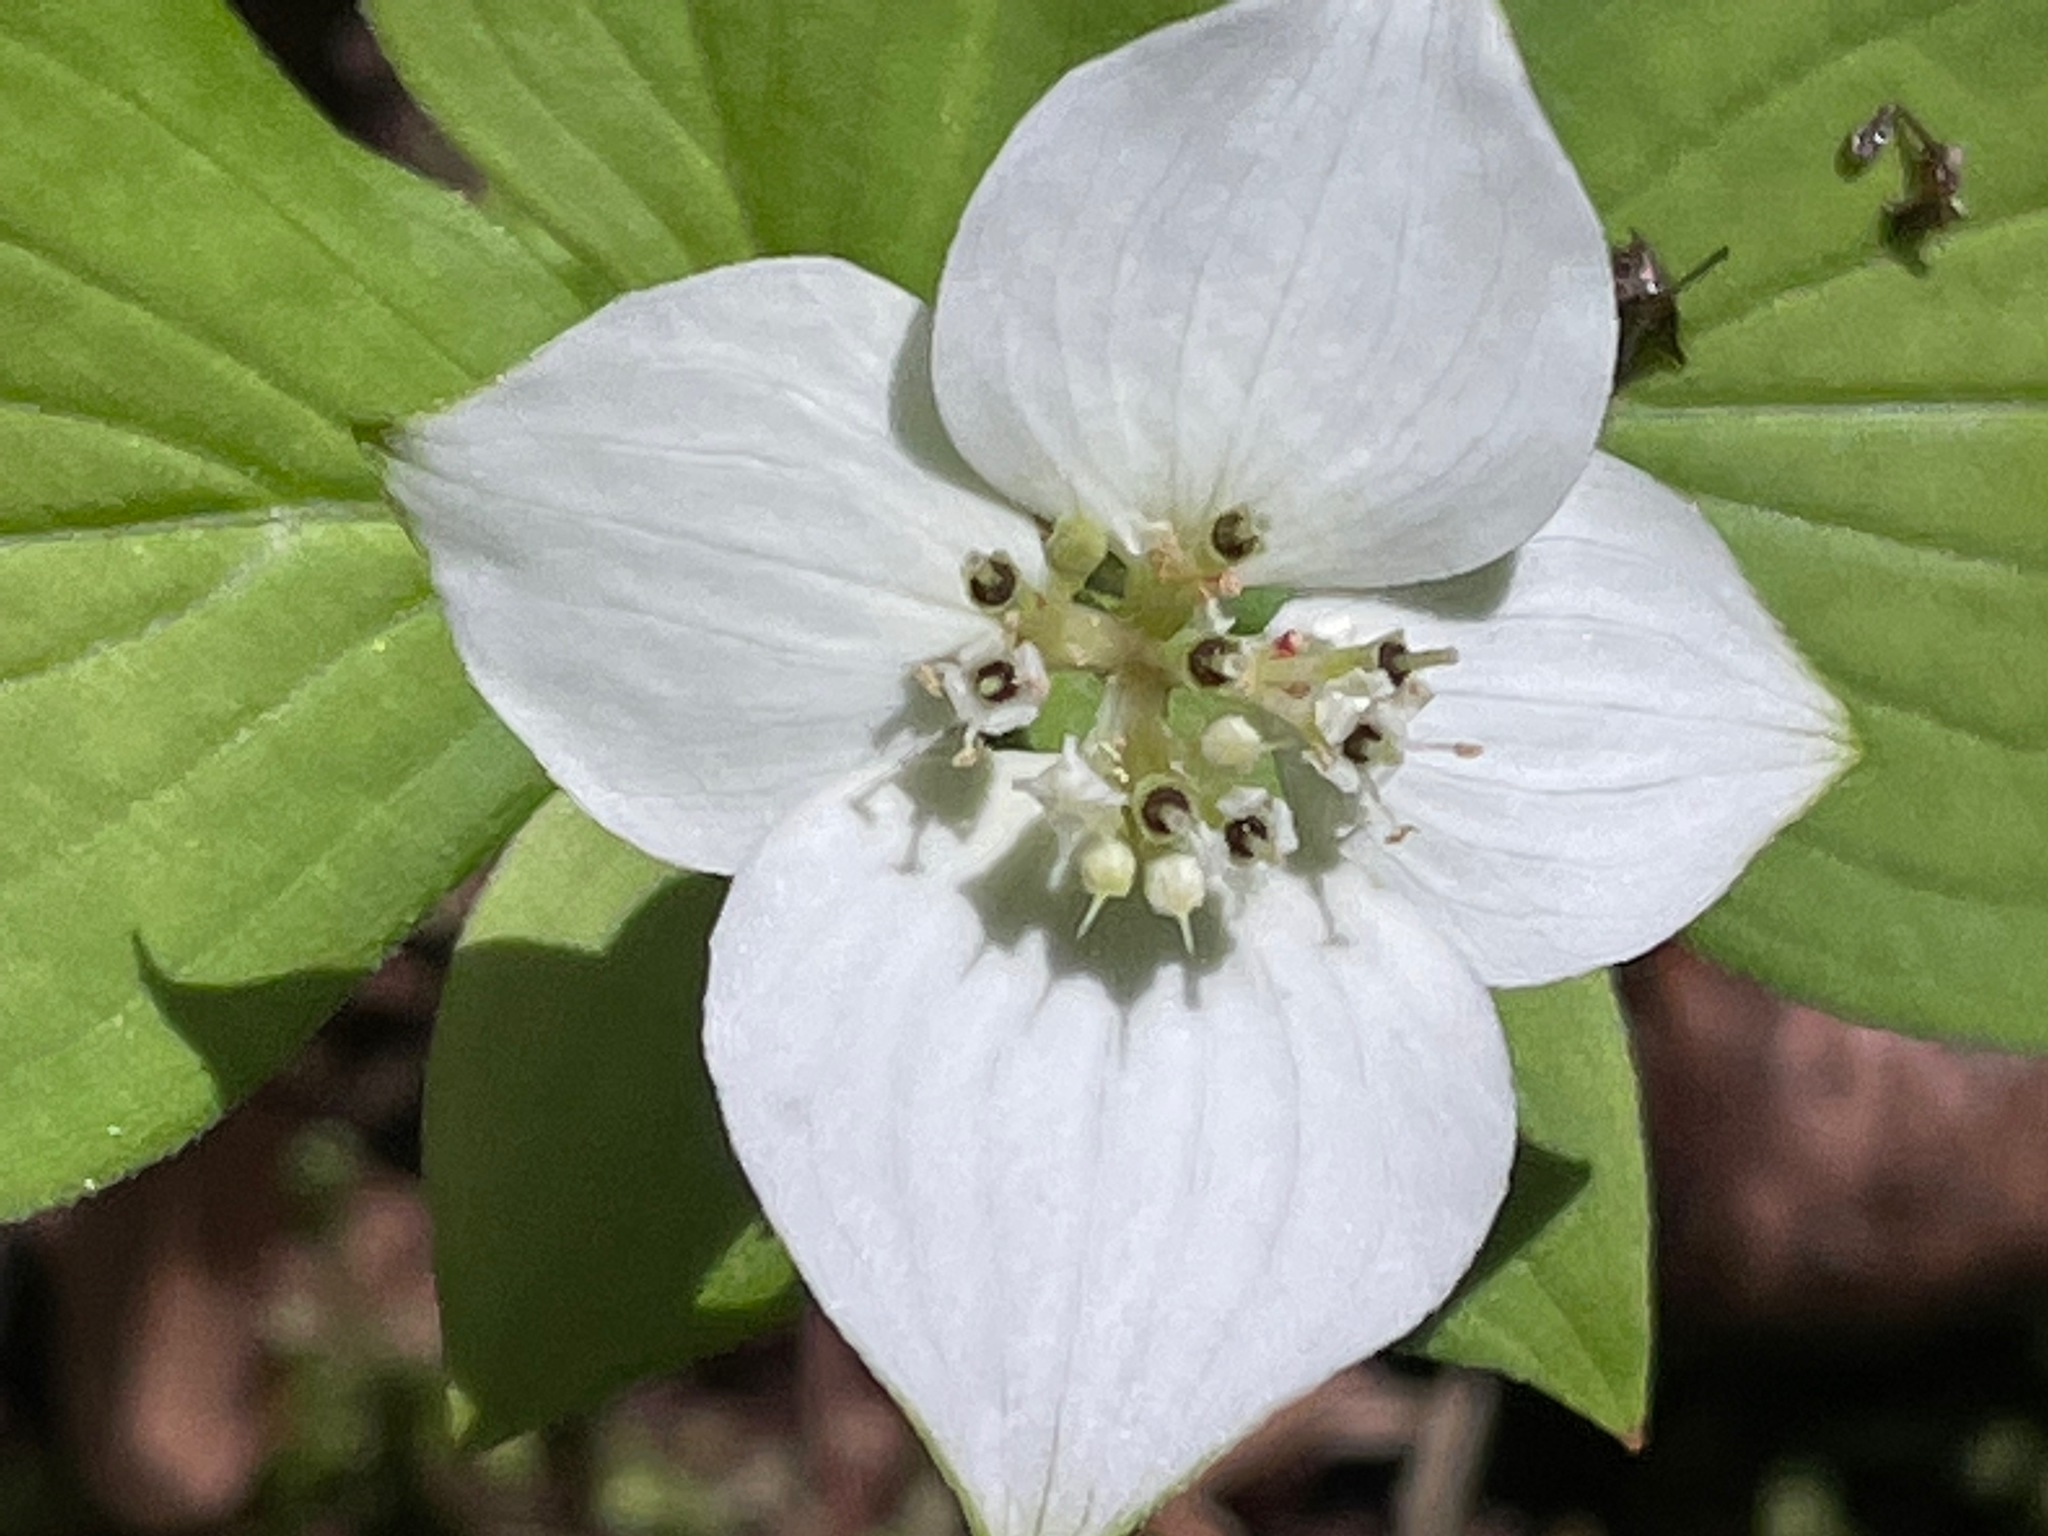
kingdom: Plantae
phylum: Tracheophyta
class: Magnoliopsida
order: Cornales
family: Cornaceae
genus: Cornus
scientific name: Cornus canadensis
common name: Creeping dogwood
